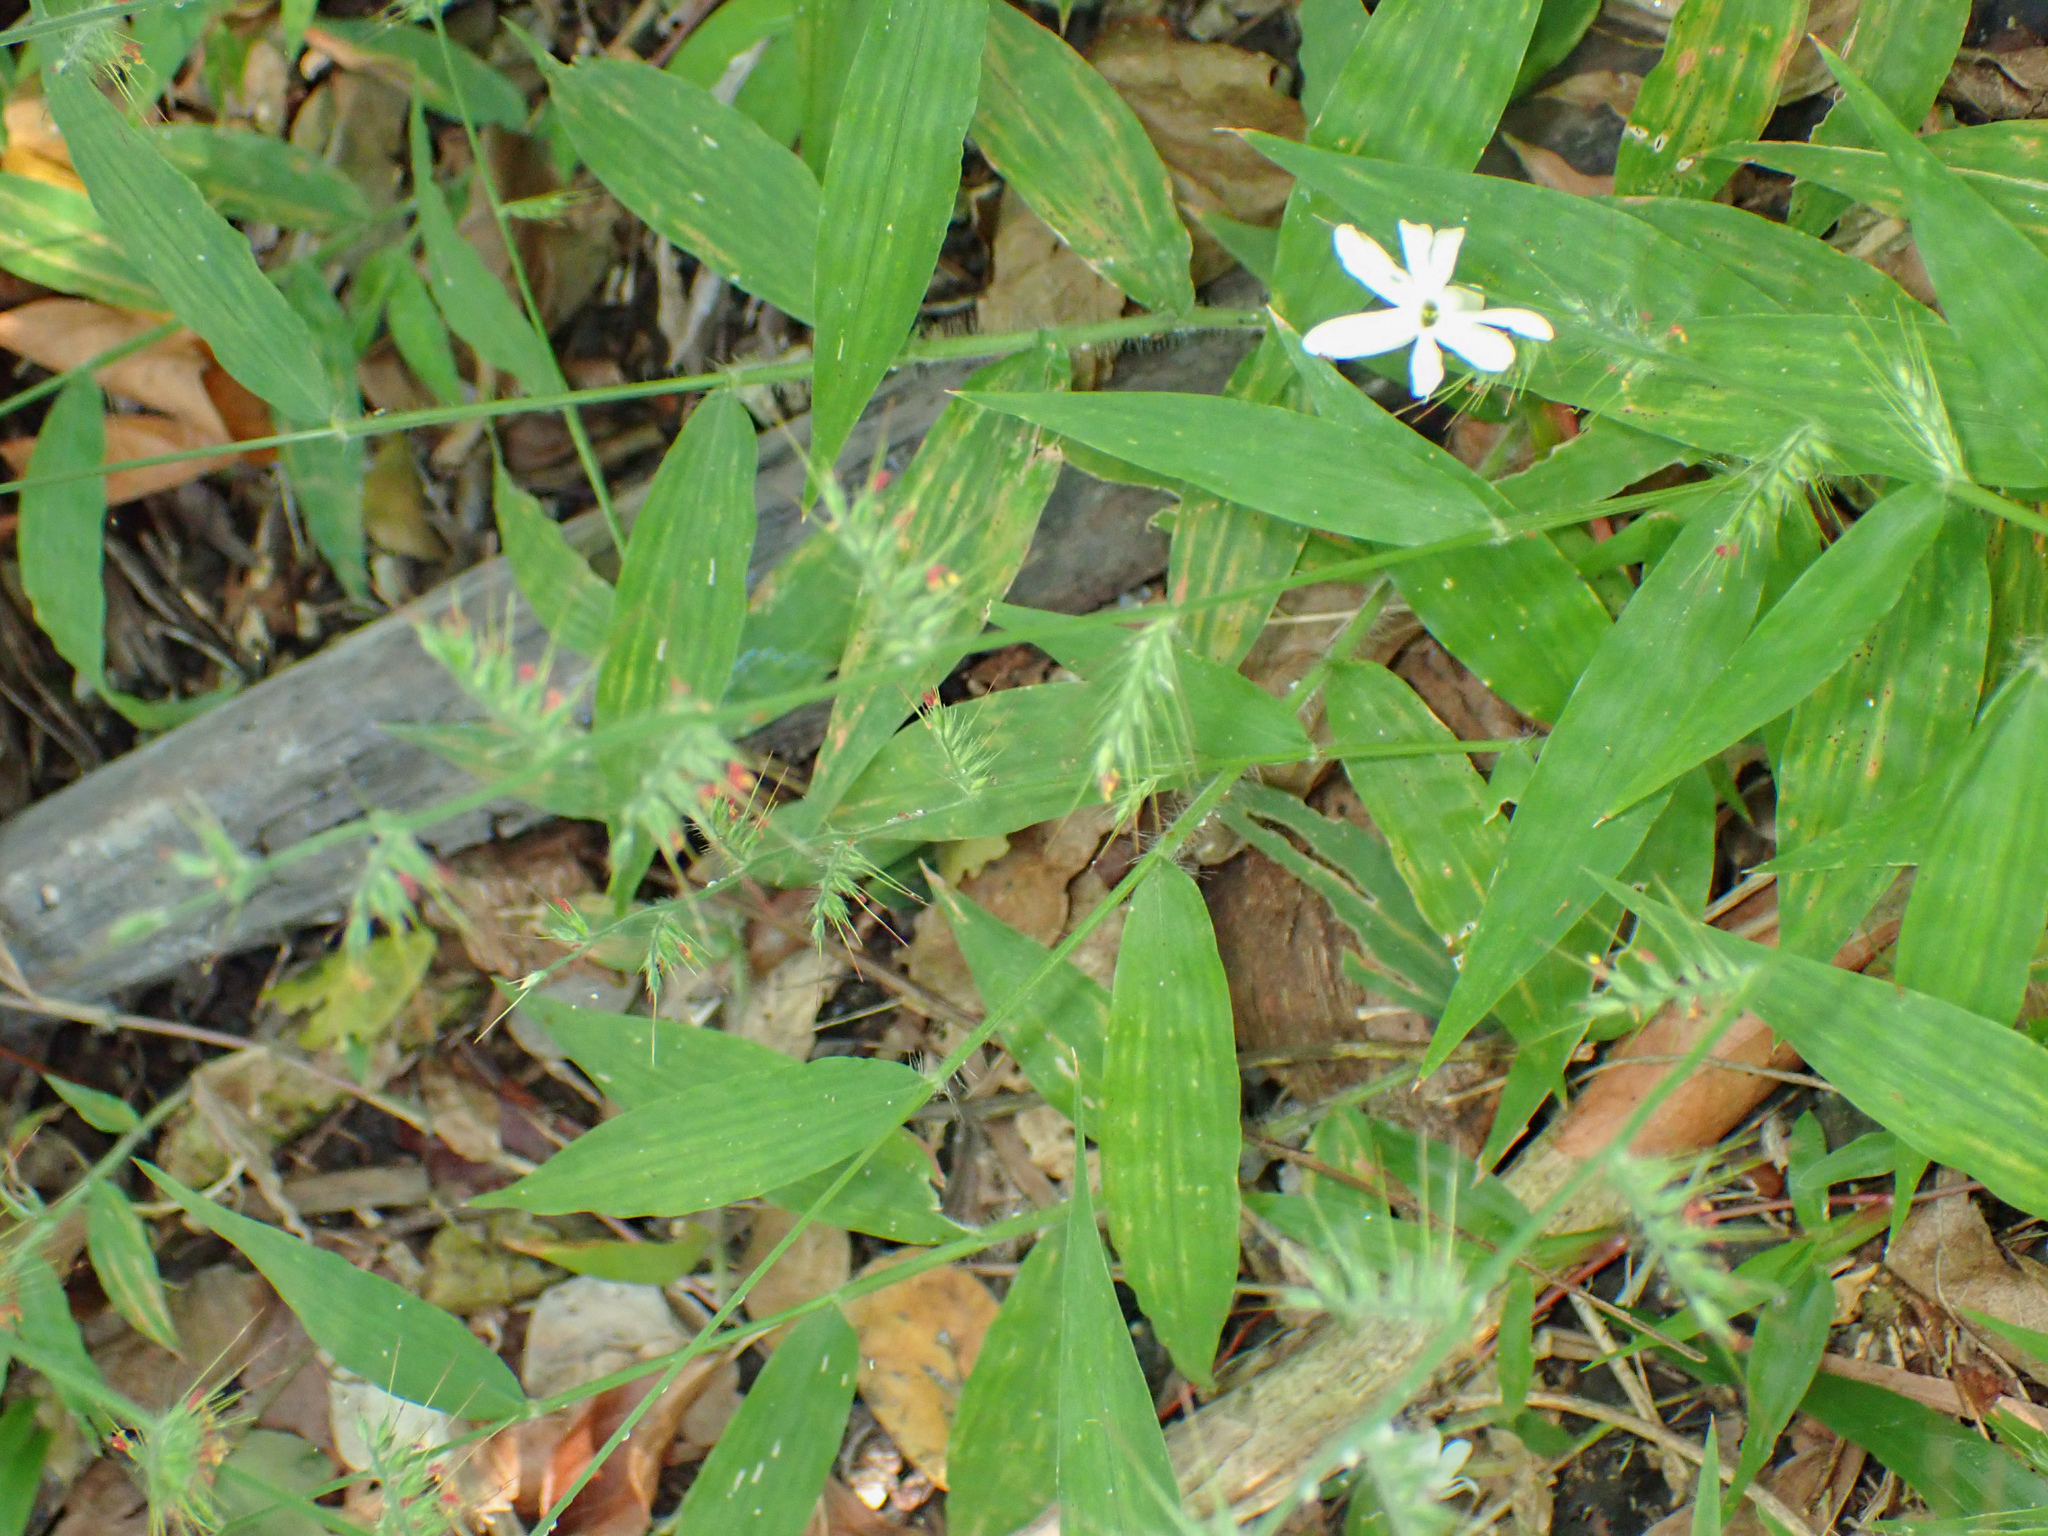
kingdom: Plantae
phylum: Tracheophyta
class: Liliopsida
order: Poales
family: Poaceae
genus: Oplismenus
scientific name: Oplismenus hirtellus
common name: Basketgrass
